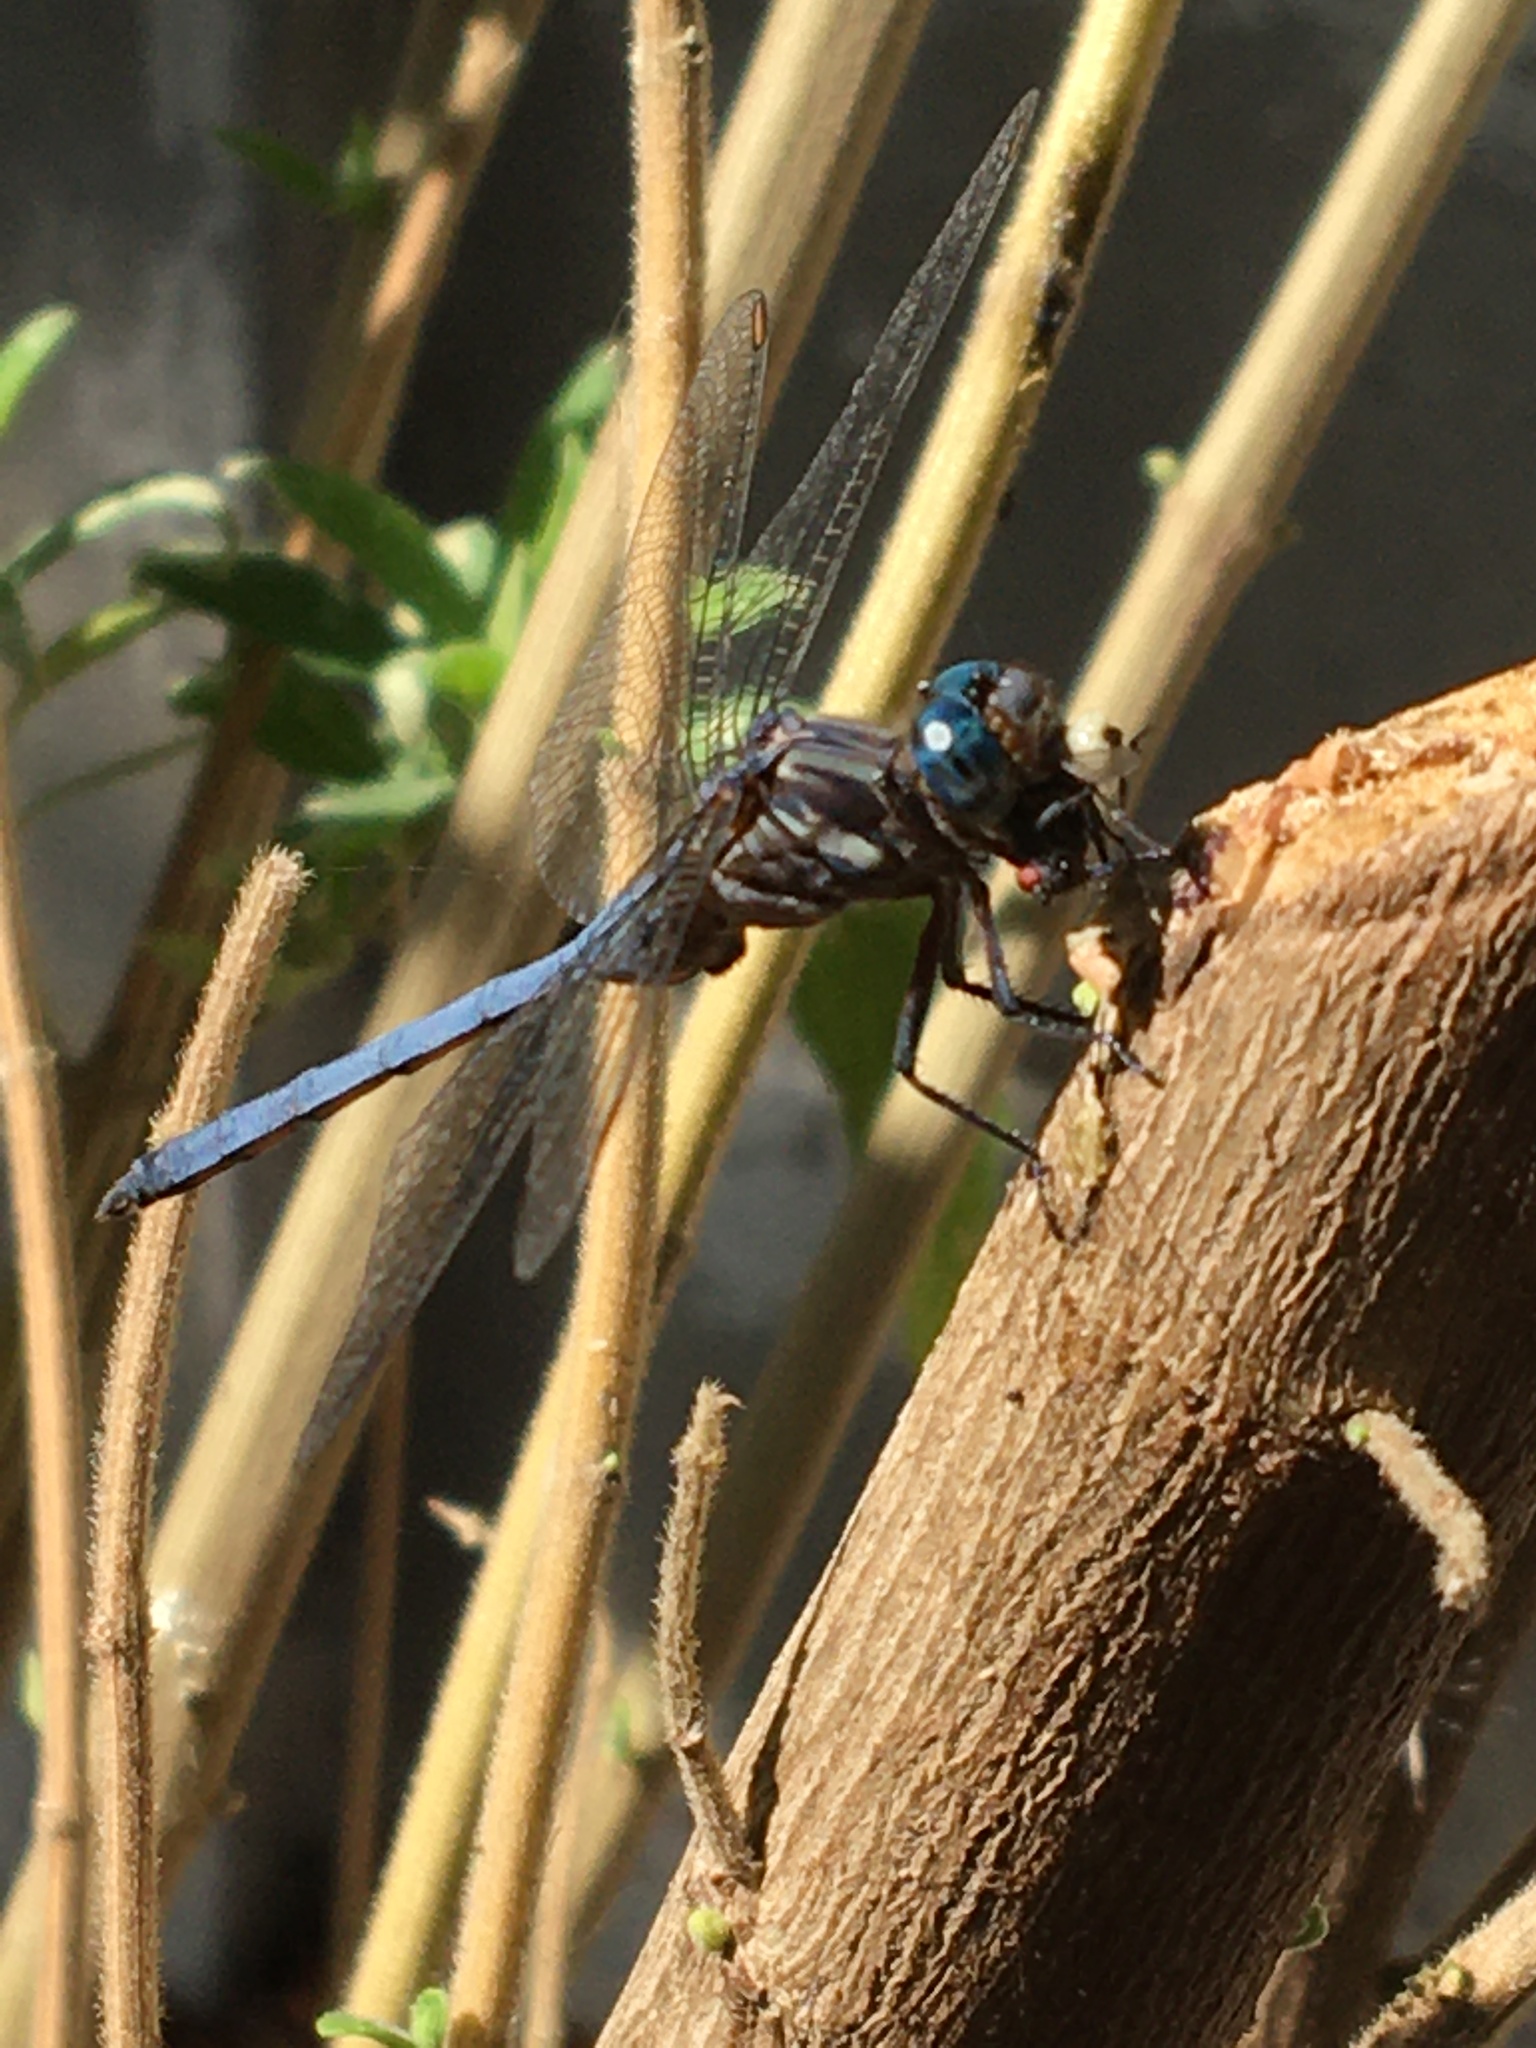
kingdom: Animalia
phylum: Arthropoda
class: Insecta
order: Odonata
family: Libellulidae
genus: Orthetrum
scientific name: Orthetrum julia
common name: Julia skimmer
